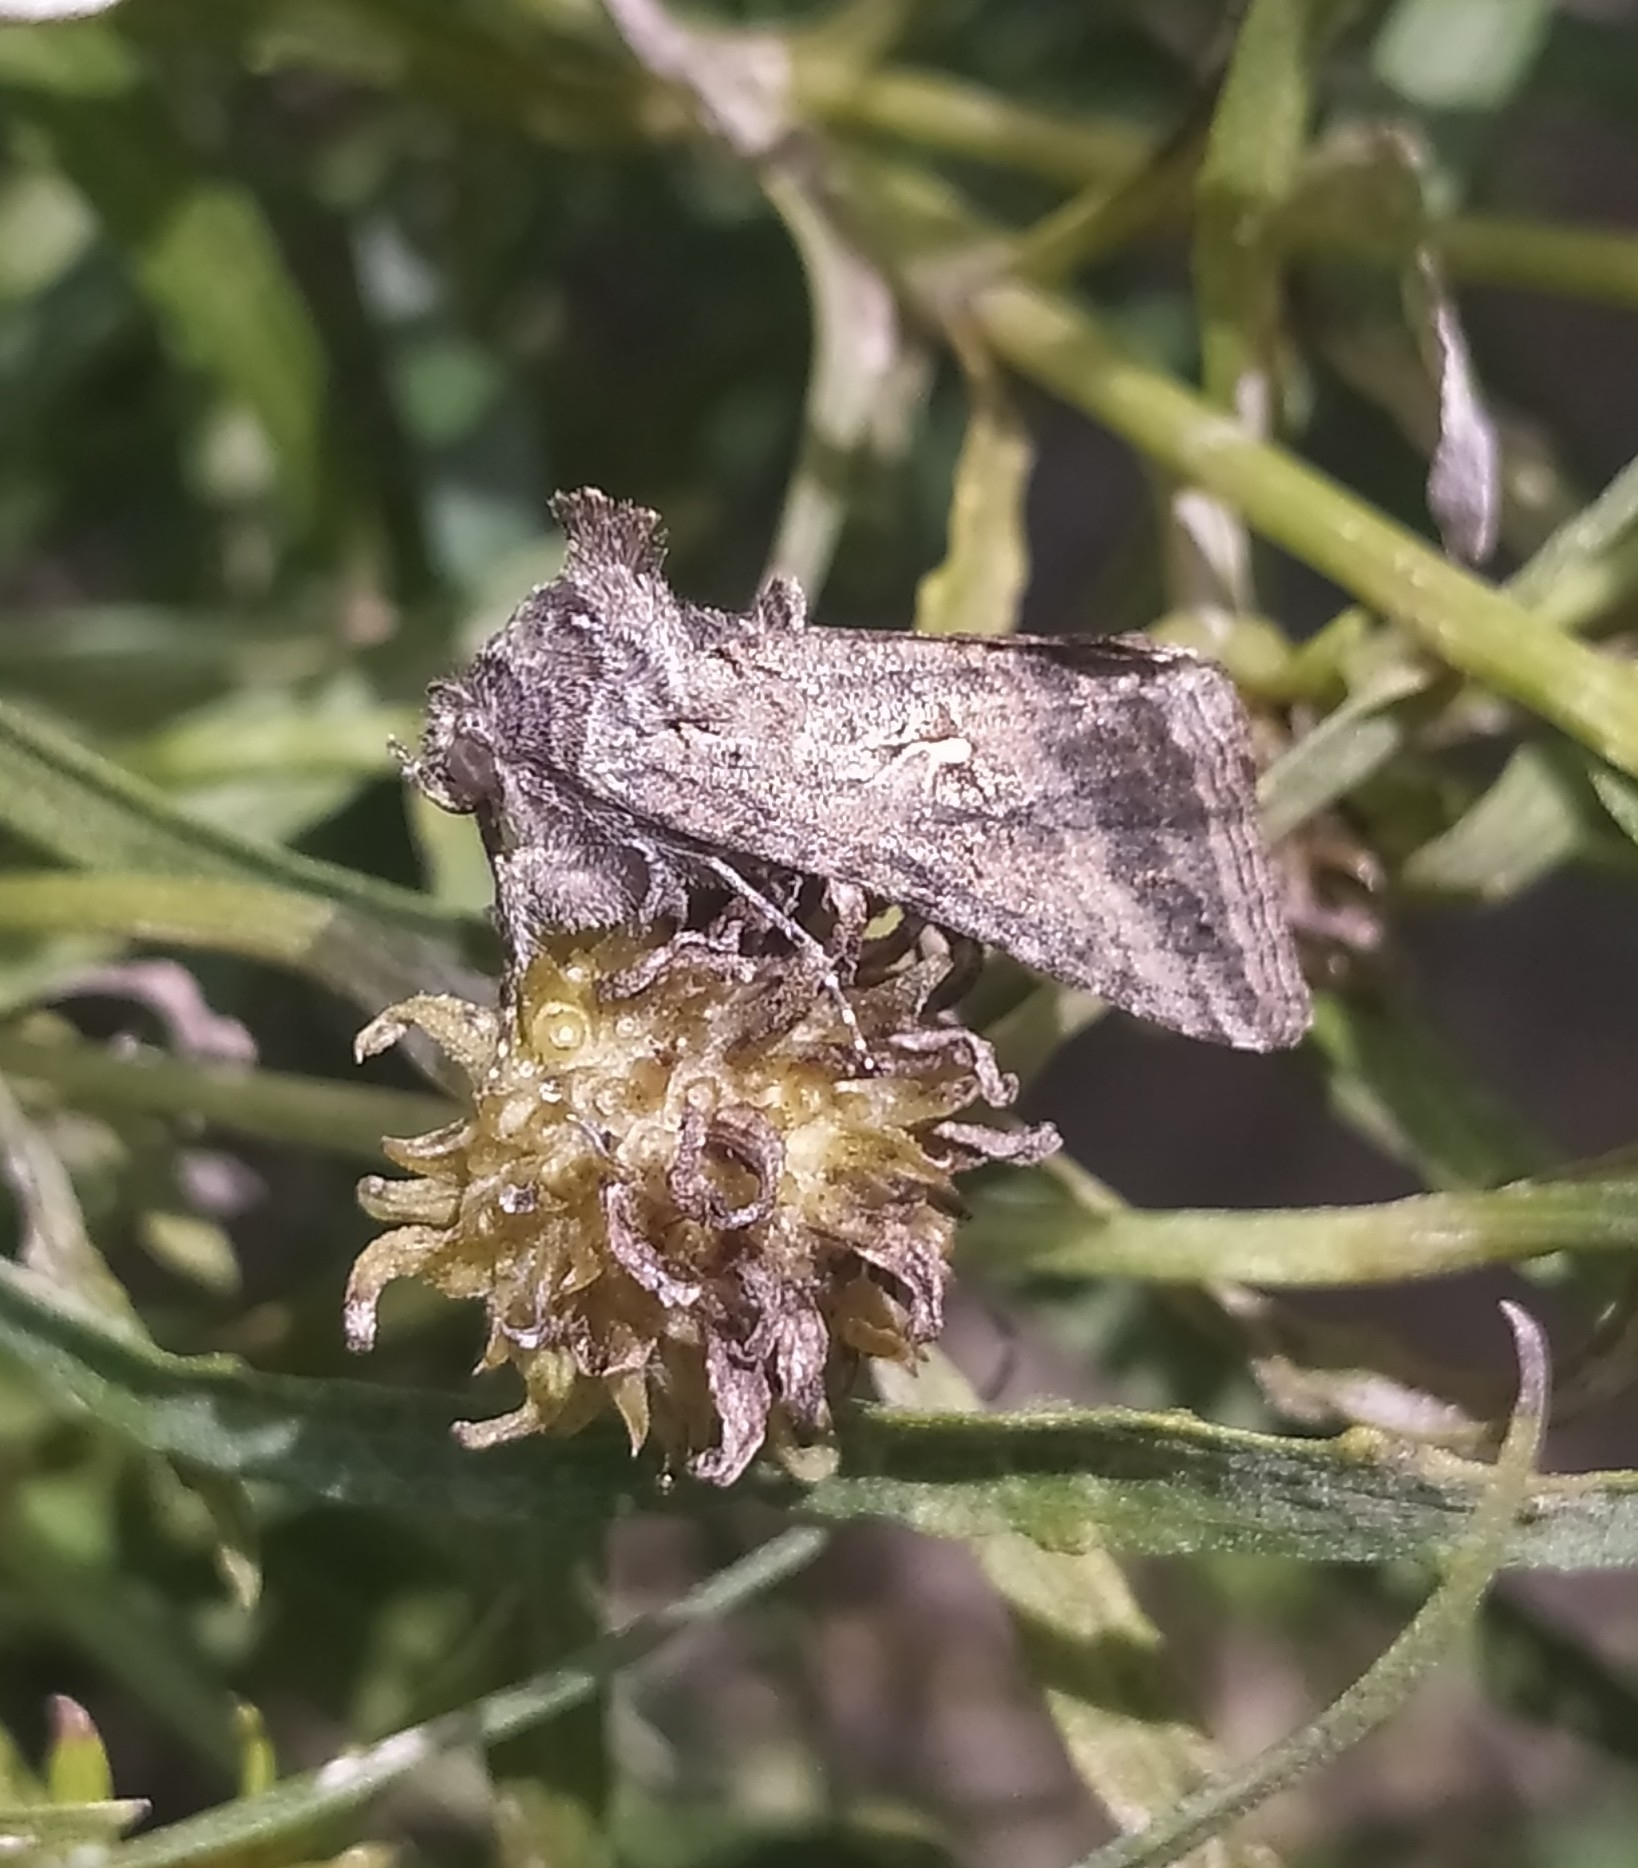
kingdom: Animalia
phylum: Arthropoda
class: Insecta
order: Lepidoptera
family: Noctuidae
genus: Rachiplusia
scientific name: Rachiplusia nu
